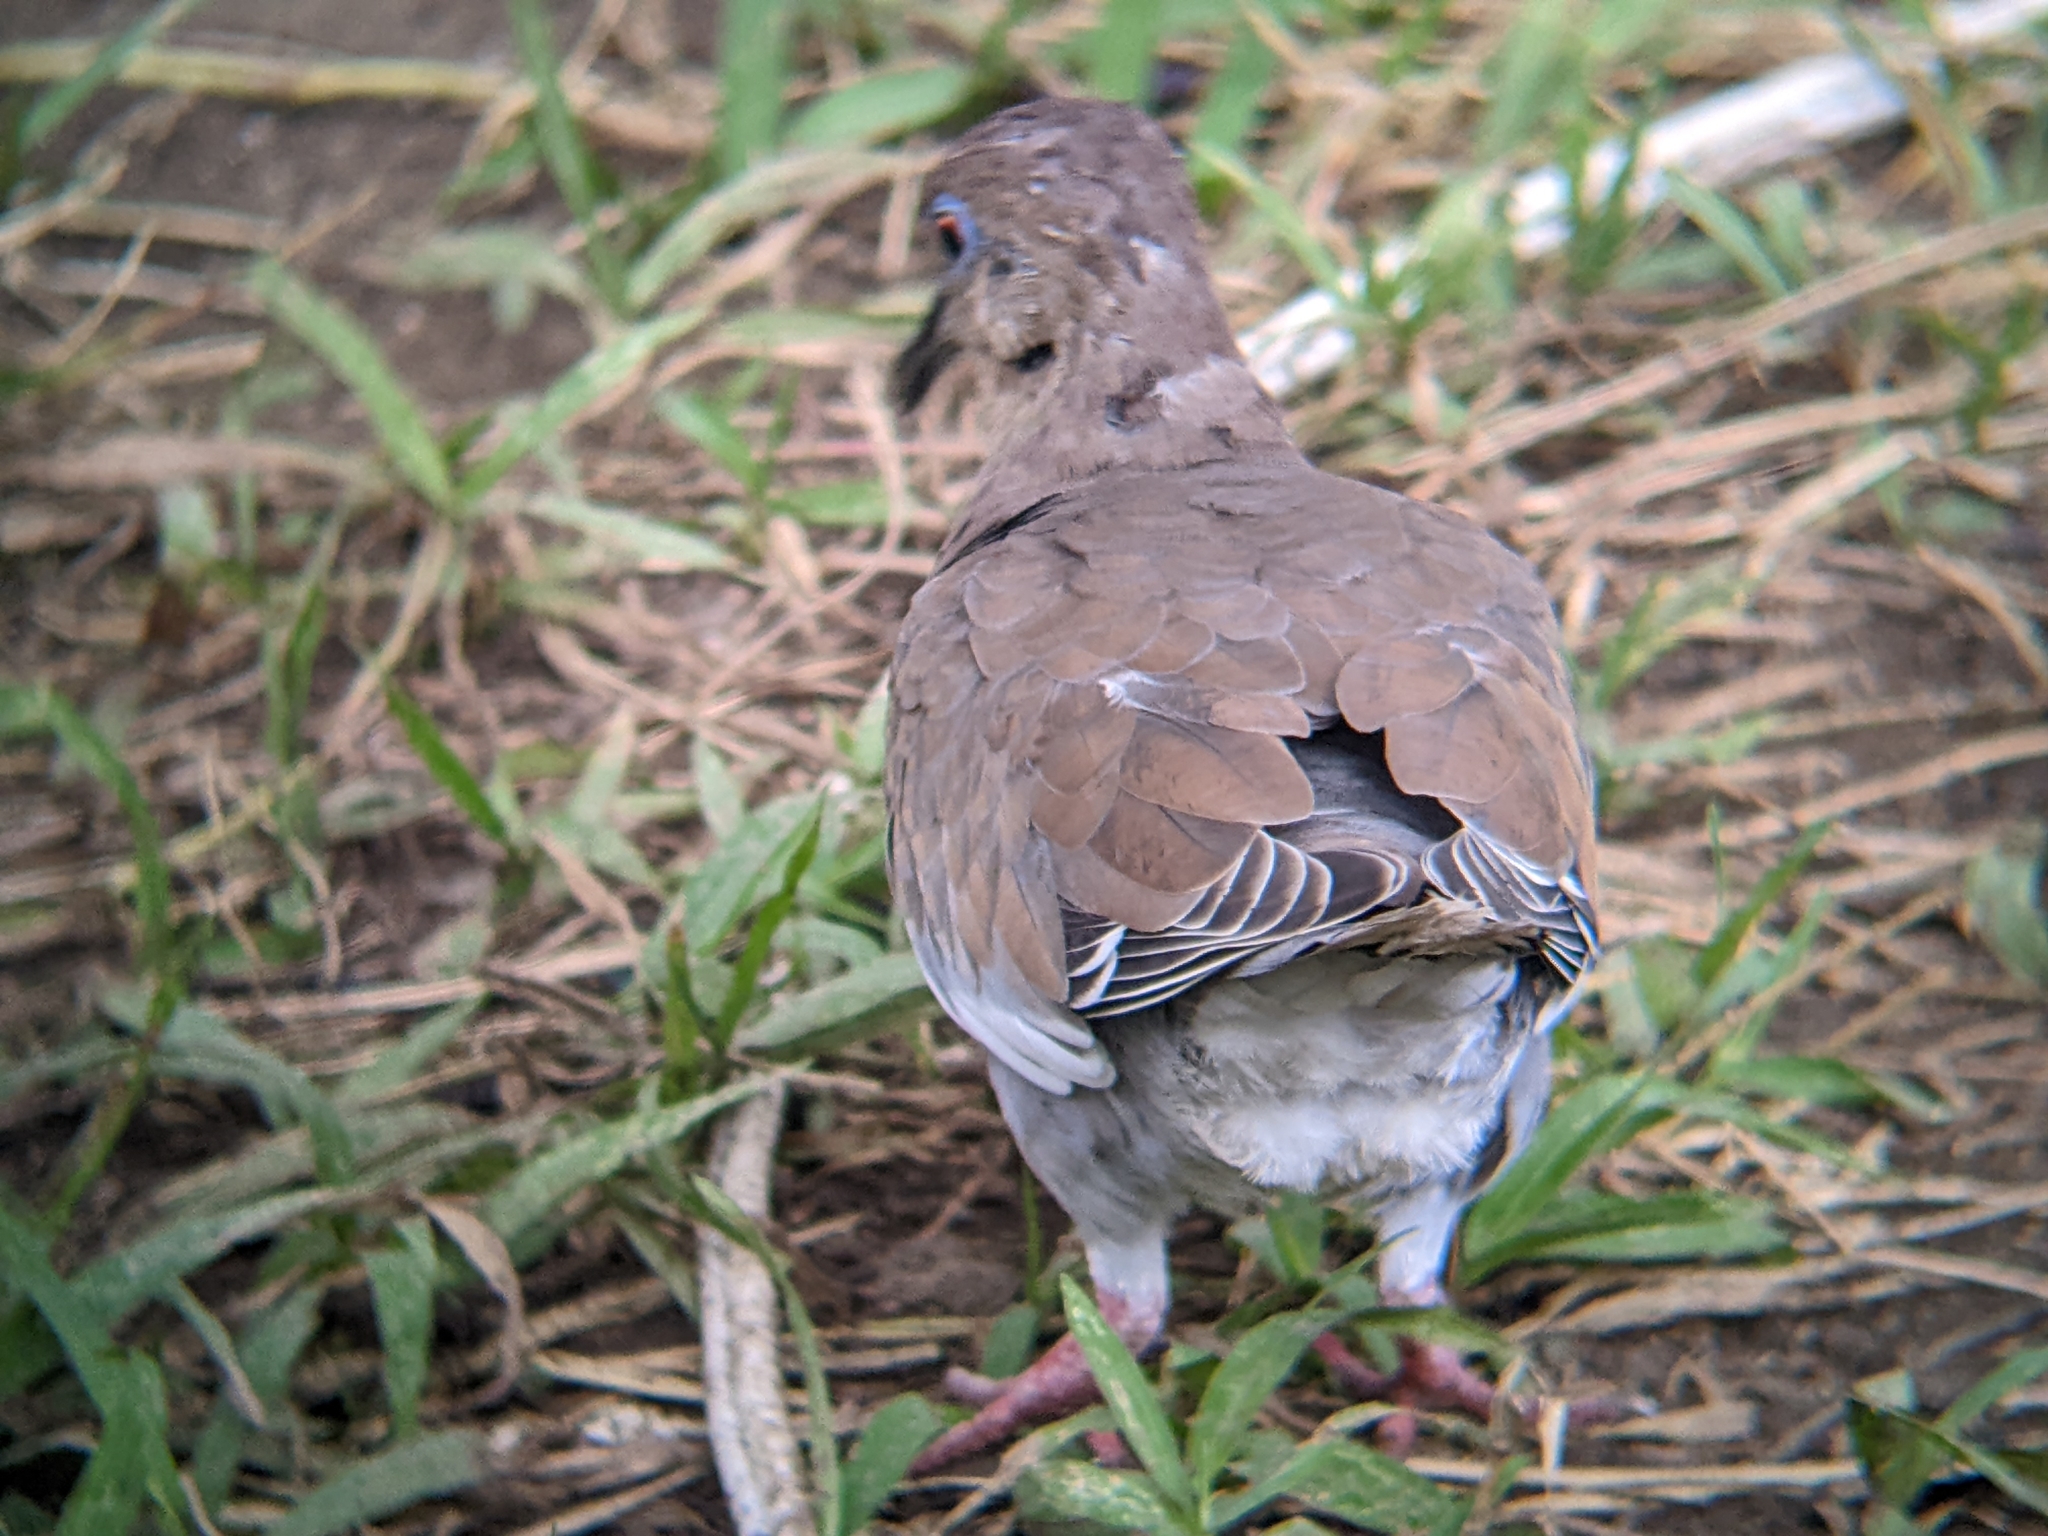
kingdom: Animalia
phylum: Chordata
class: Aves
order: Columbiformes
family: Columbidae
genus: Zenaida
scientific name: Zenaida asiatica
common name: White-winged dove
